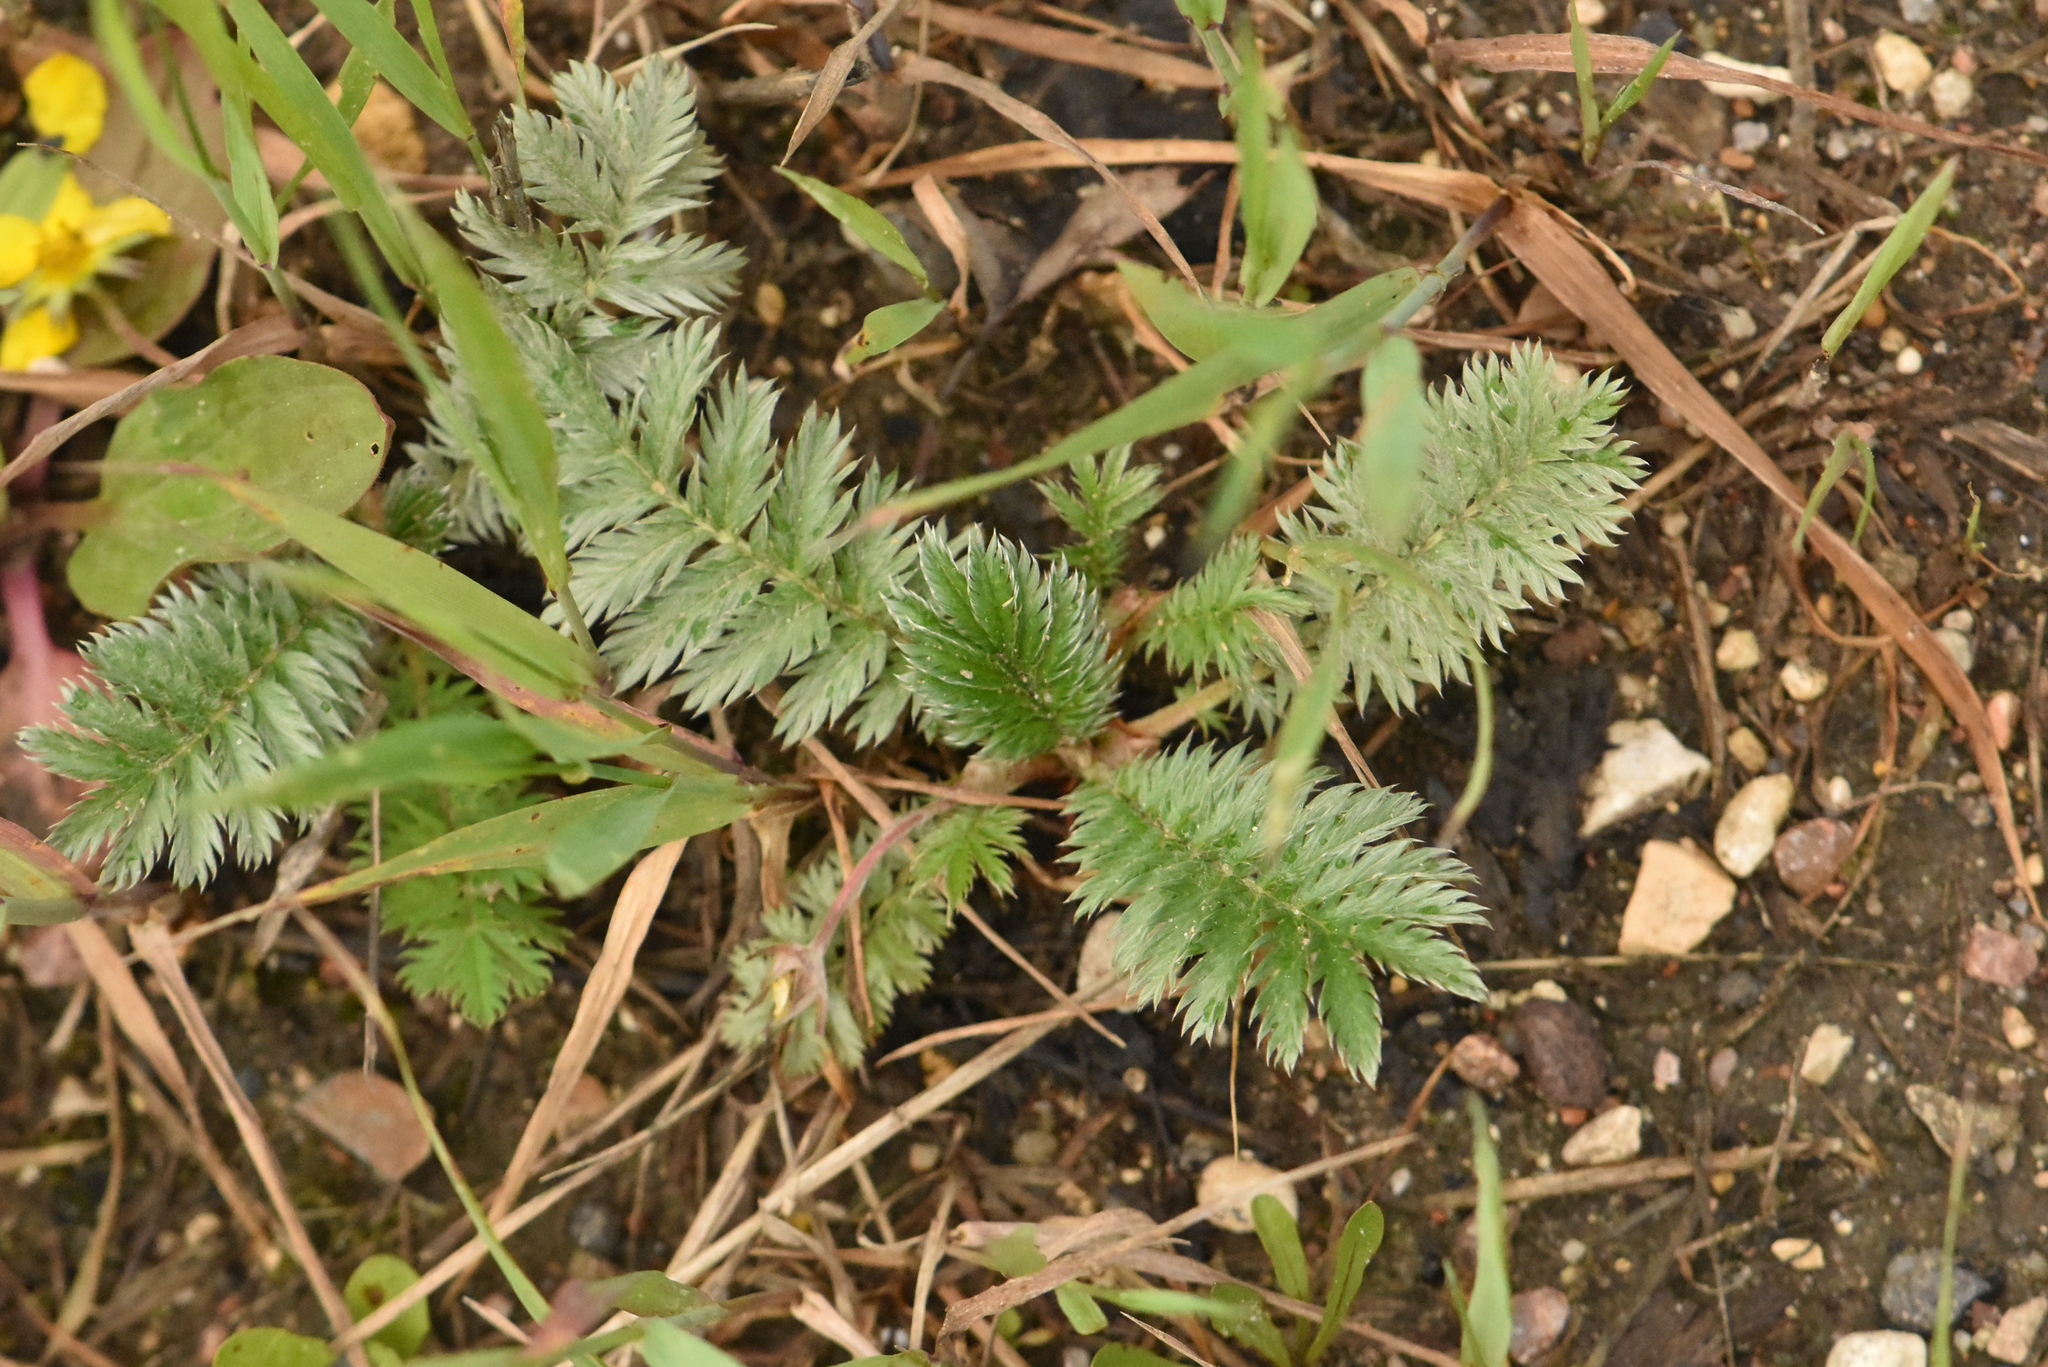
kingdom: Plantae
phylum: Tracheophyta
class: Magnoliopsida
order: Rosales
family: Rosaceae
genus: Argentina
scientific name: Argentina anserina
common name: Common silverweed
